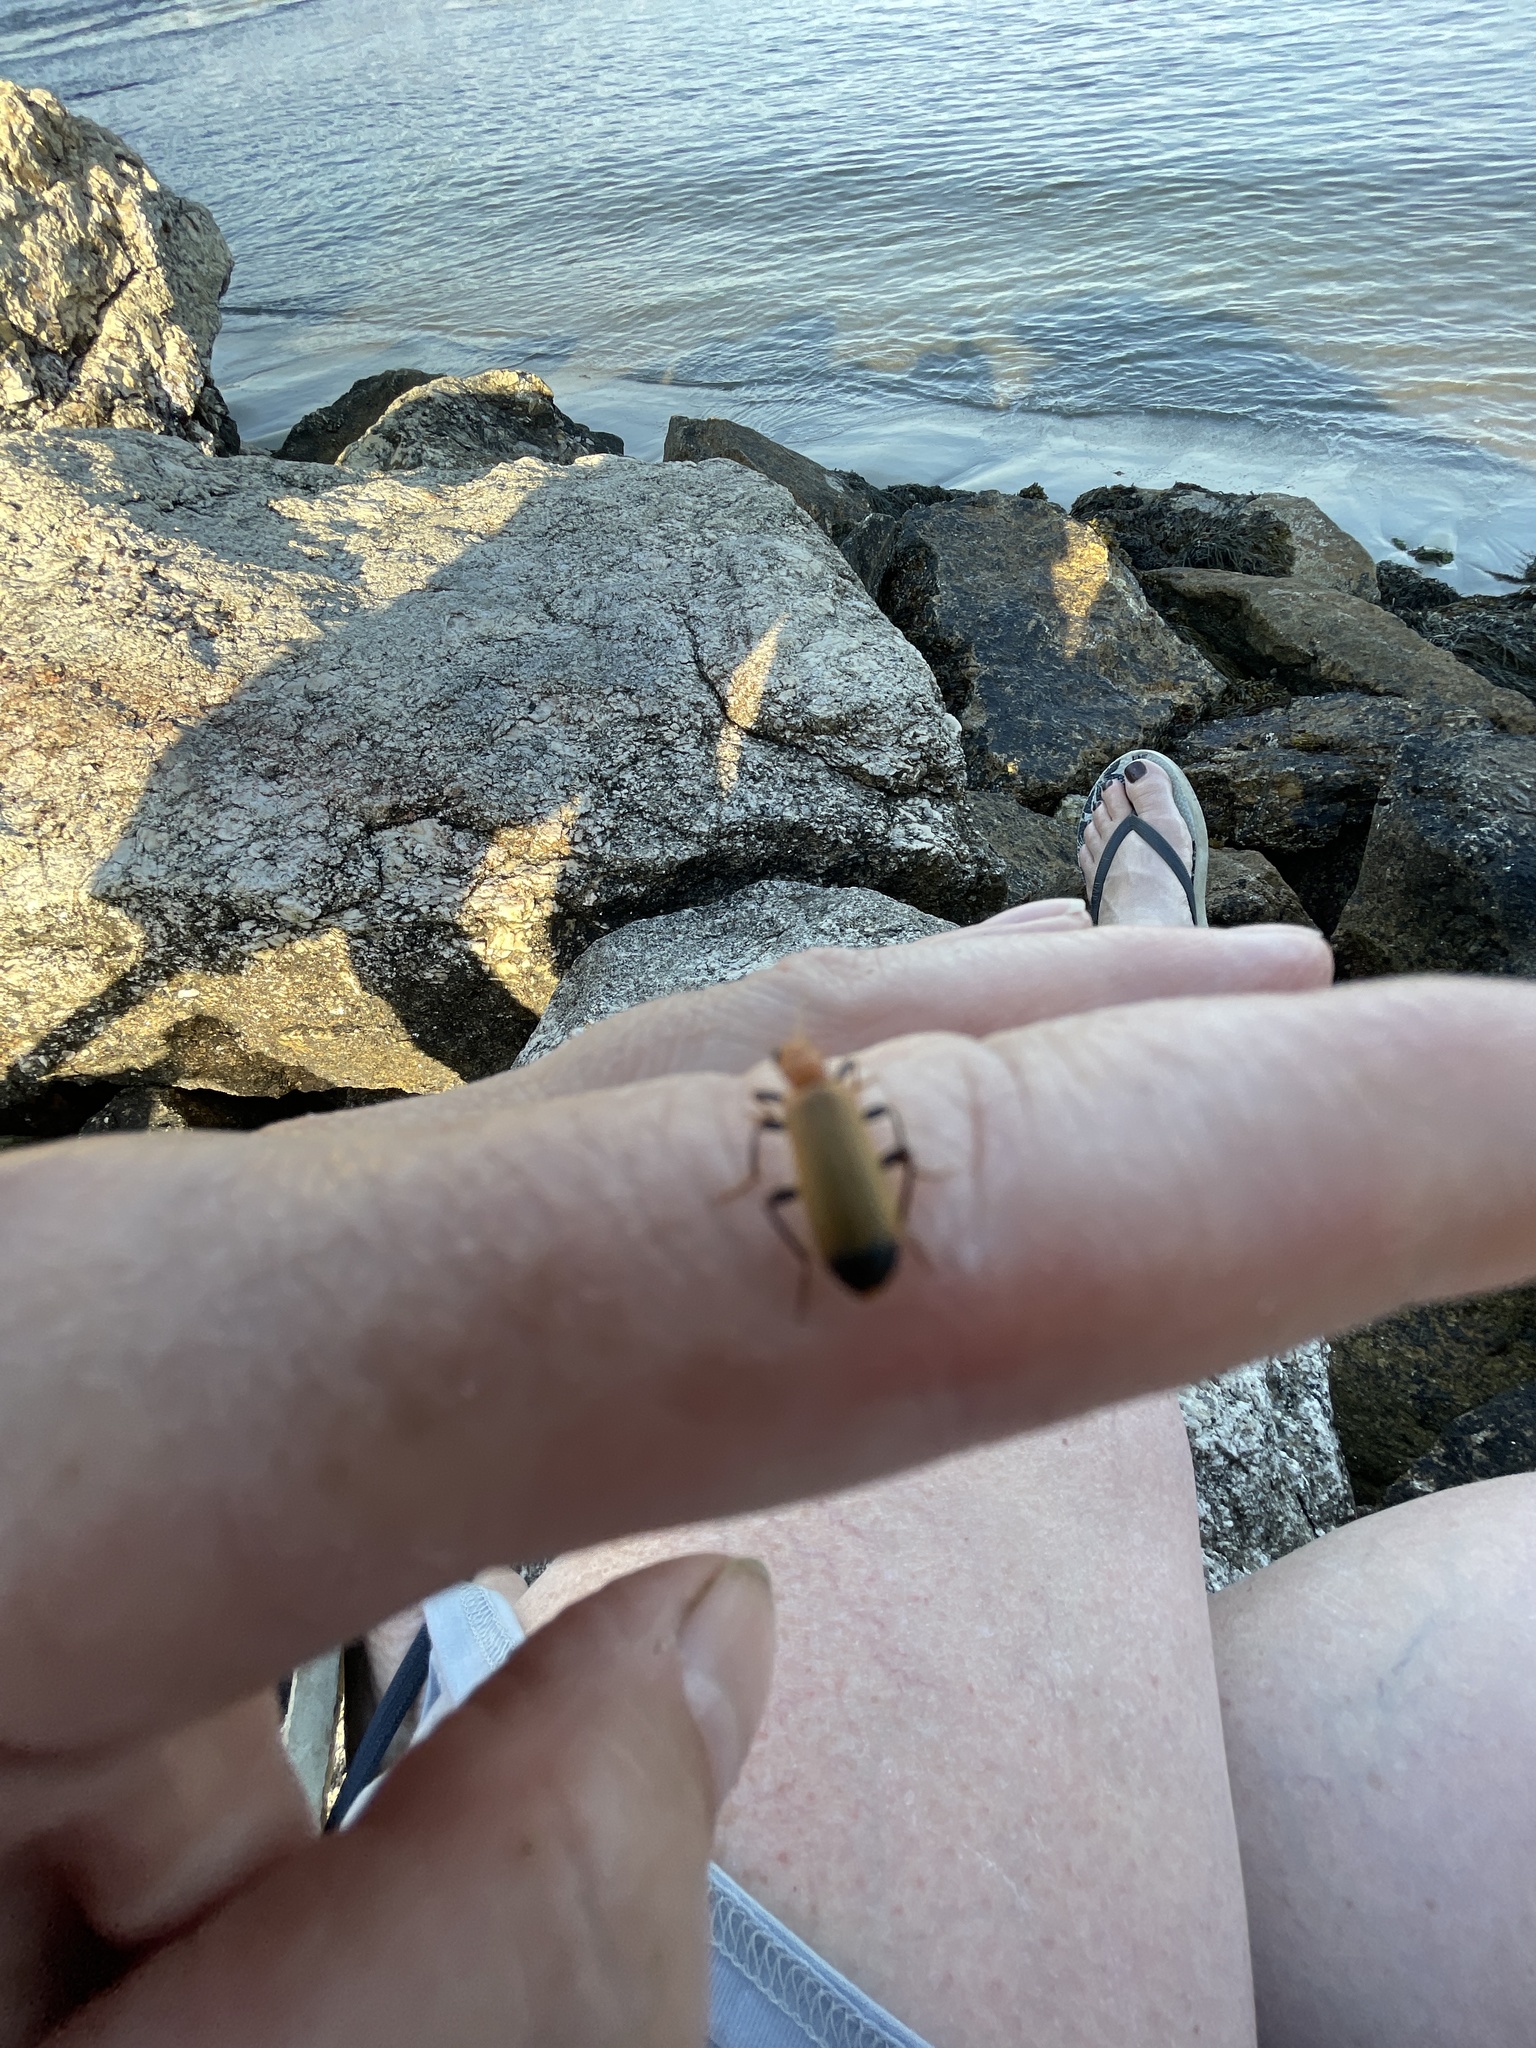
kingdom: Animalia
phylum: Arthropoda
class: Insecta
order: Coleoptera
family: Oedemeridae
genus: Nacerdes
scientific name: Nacerdes melanura
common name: Wharf borer
